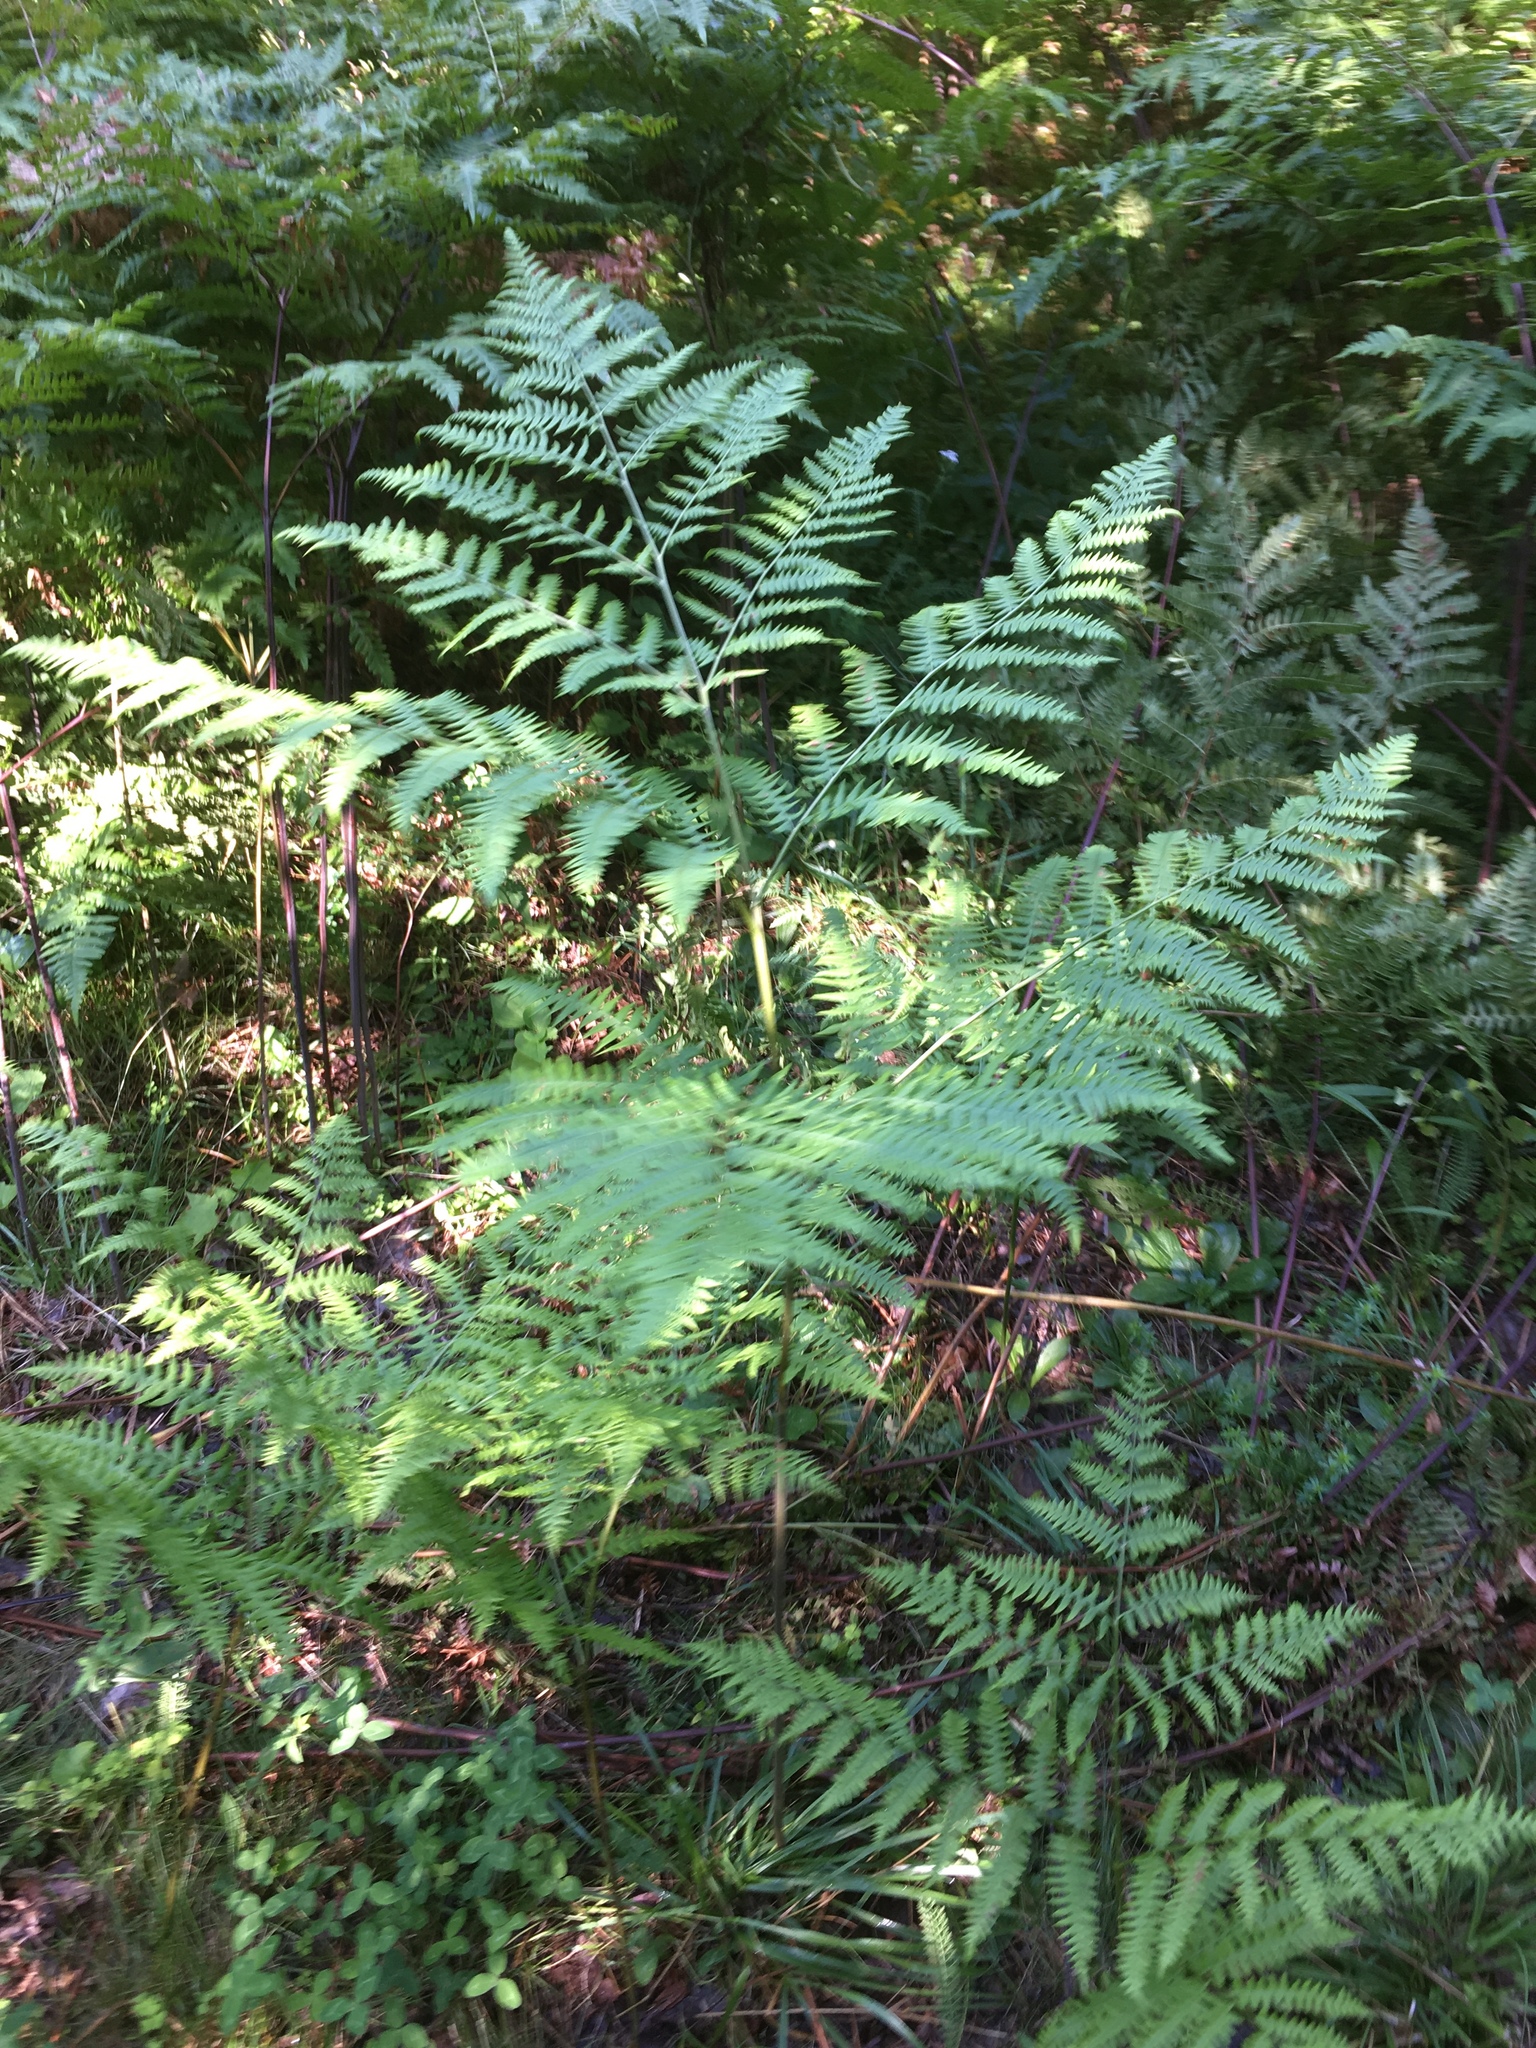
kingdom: Plantae
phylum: Tracheophyta
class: Polypodiopsida
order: Polypodiales
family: Dennstaedtiaceae
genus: Pteridium
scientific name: Pteridium aquilinum
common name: Bracken
